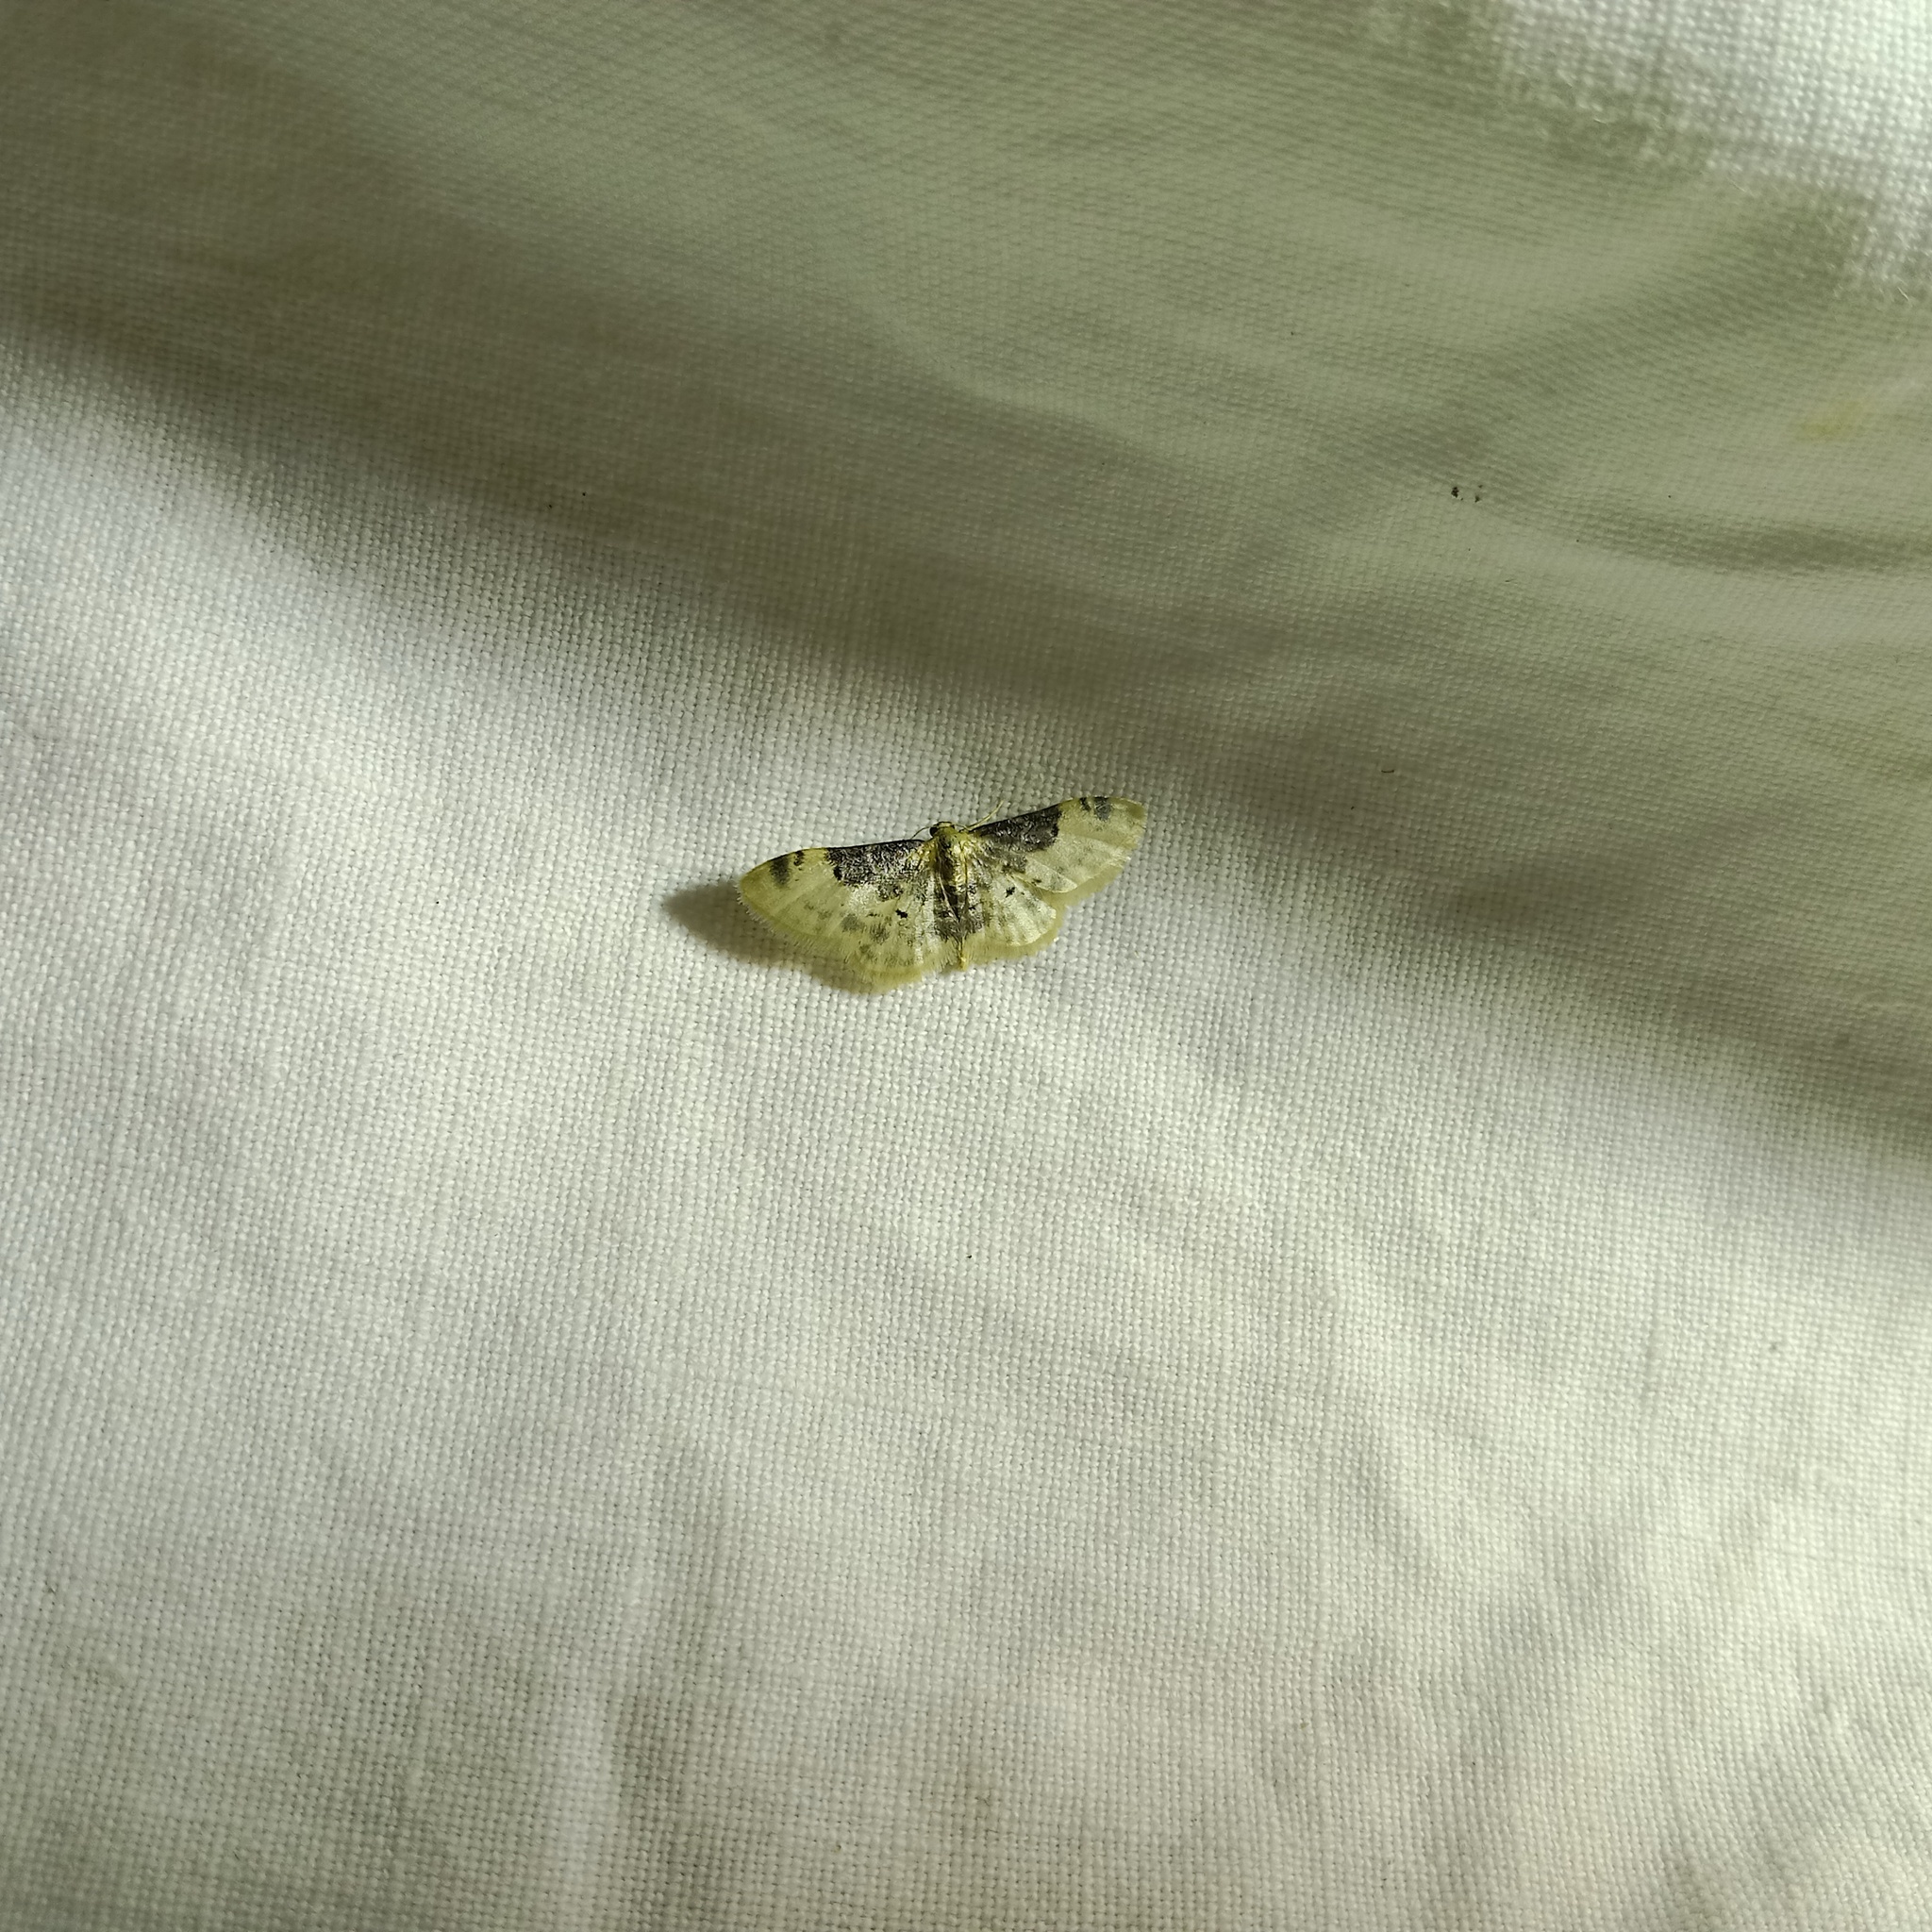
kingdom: Animalia
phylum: Arthropoda
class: Insecta
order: Lepidoptera
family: Geometridae
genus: Idaea
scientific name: Idaea filicata
